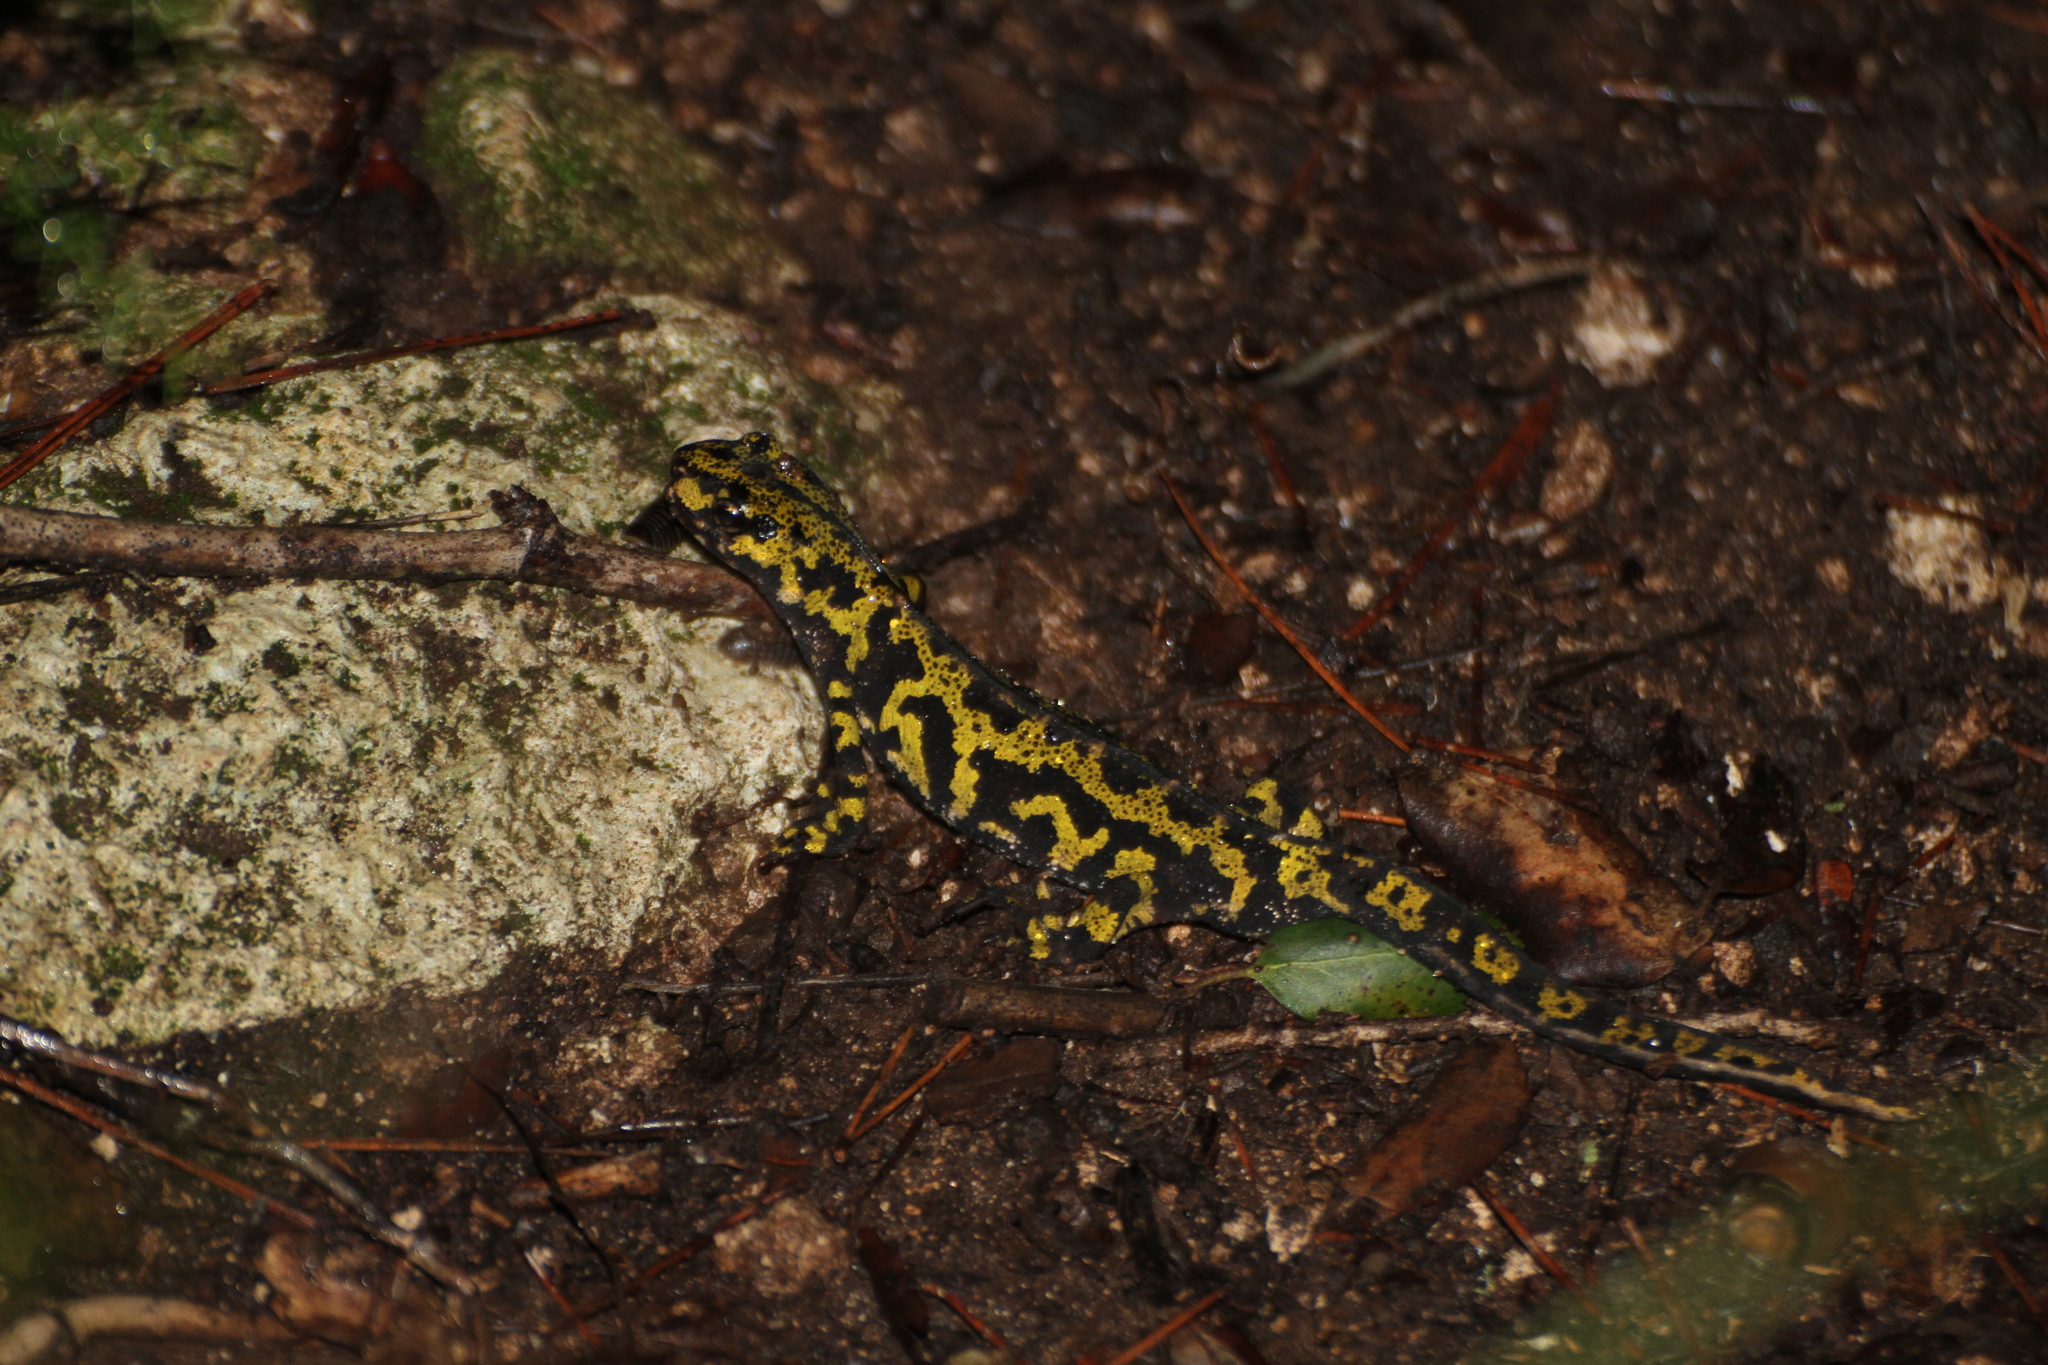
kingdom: Animalia
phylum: Chordata
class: Amphibia
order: Caudata
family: Salamandridae
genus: Triturus
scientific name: Triturus marmoratus
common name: Marbled newt
